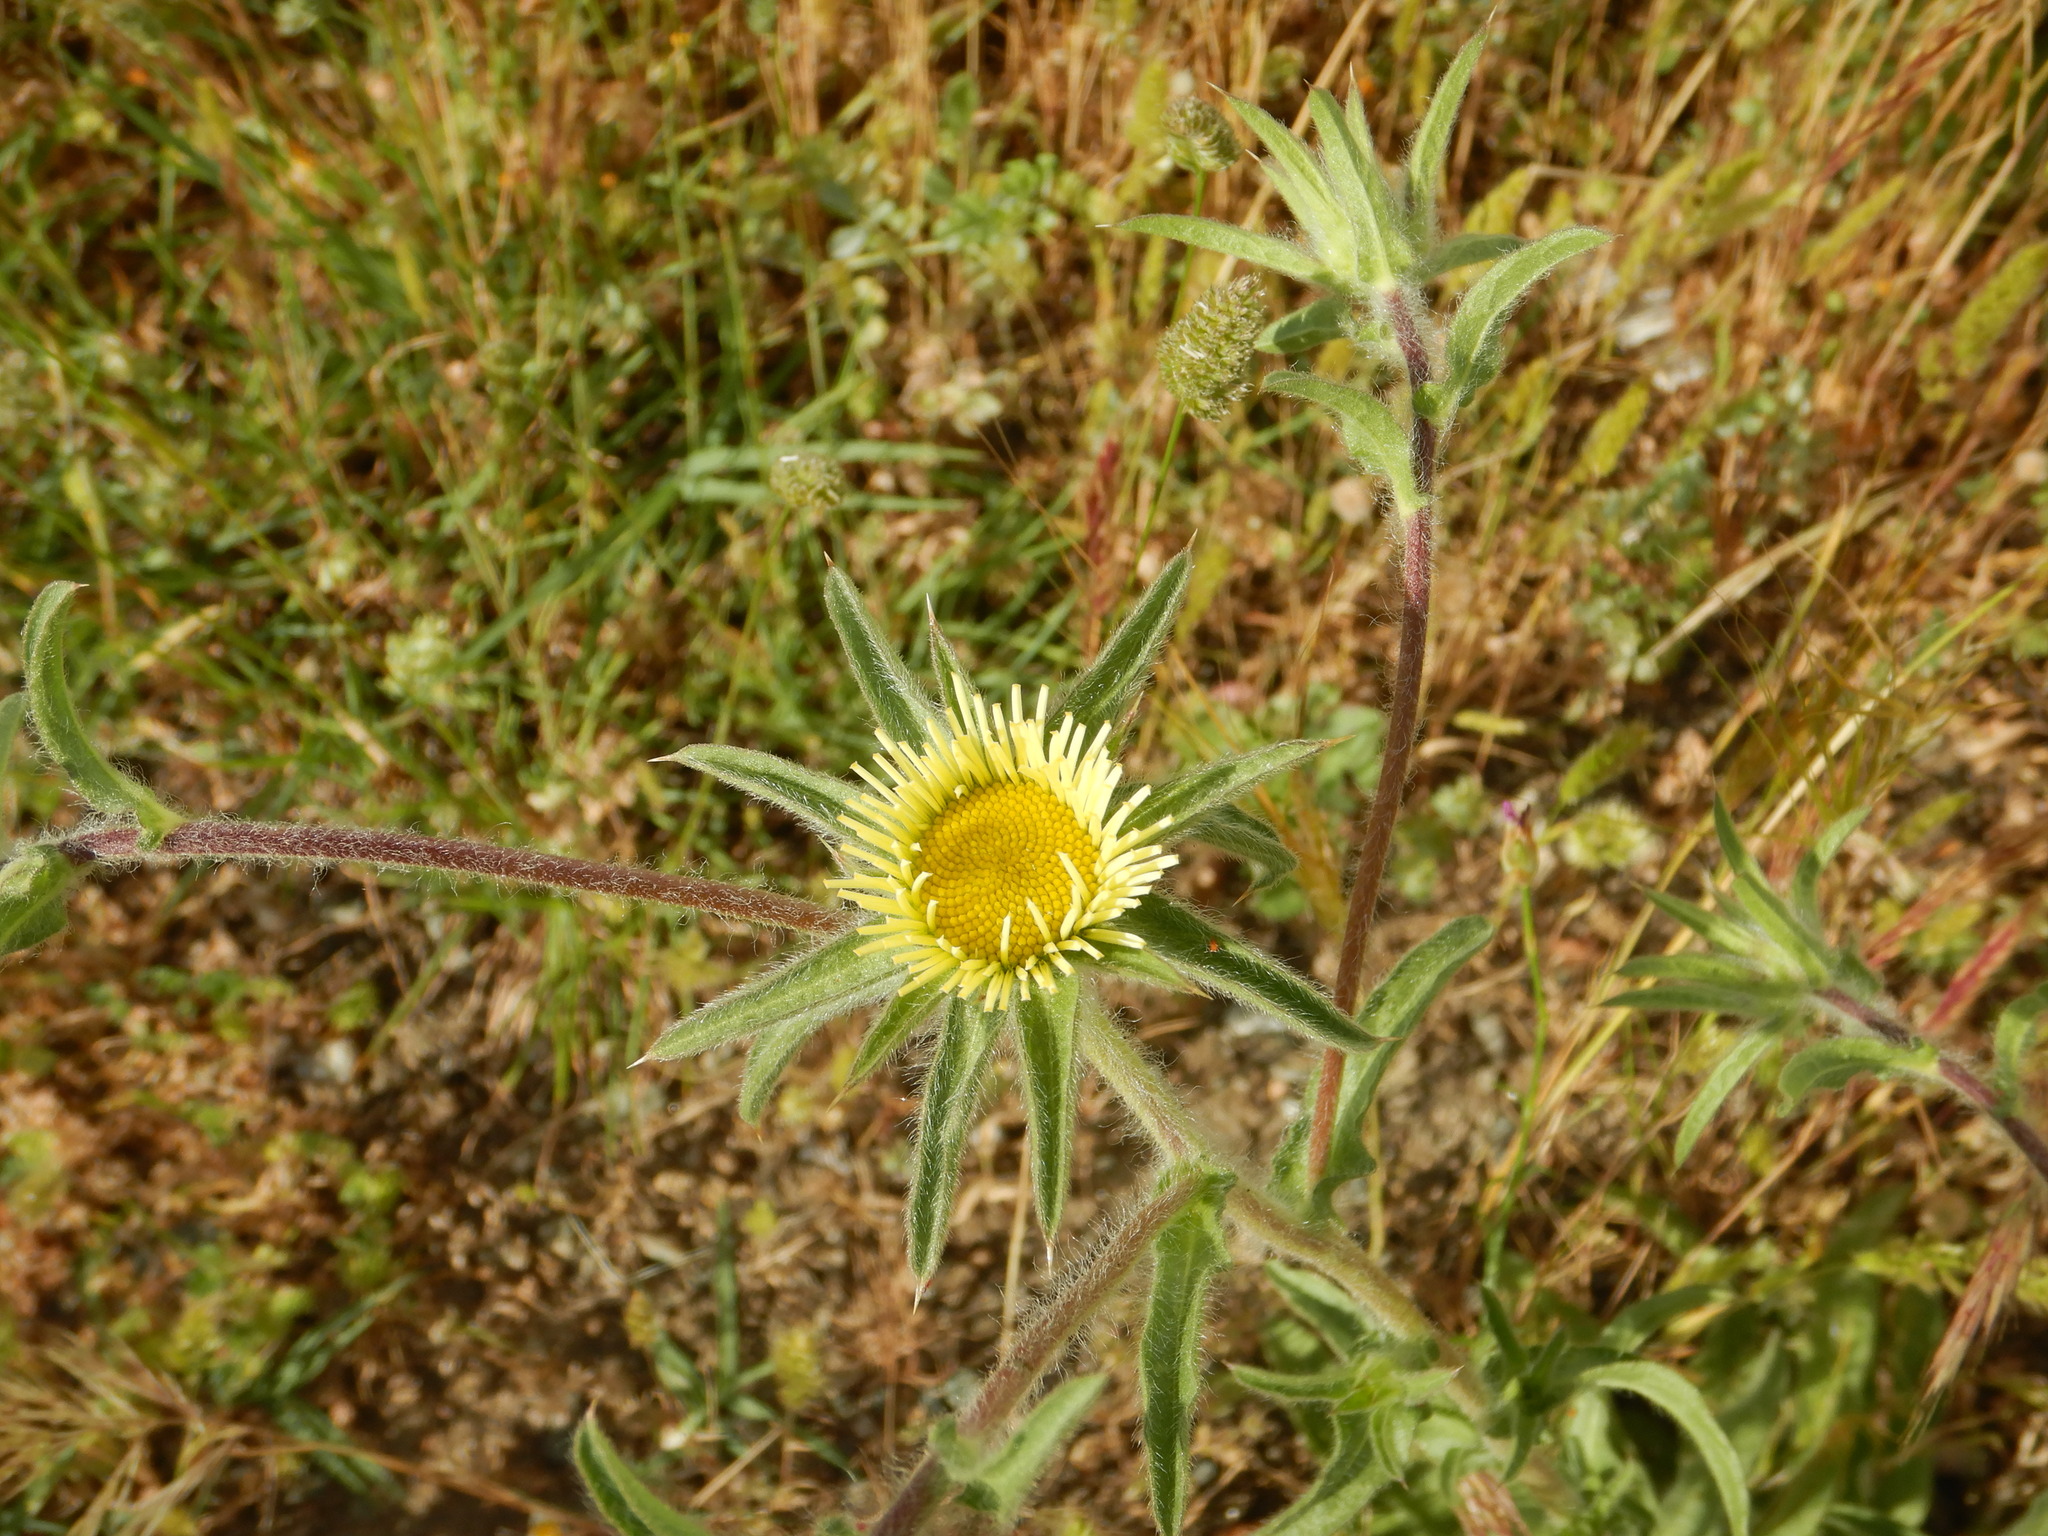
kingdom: Plantae
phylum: Tracheophyta
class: Magnoliopsida
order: Asterales
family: Asteraceae
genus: Pallenis
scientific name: Pallenis spinosa
